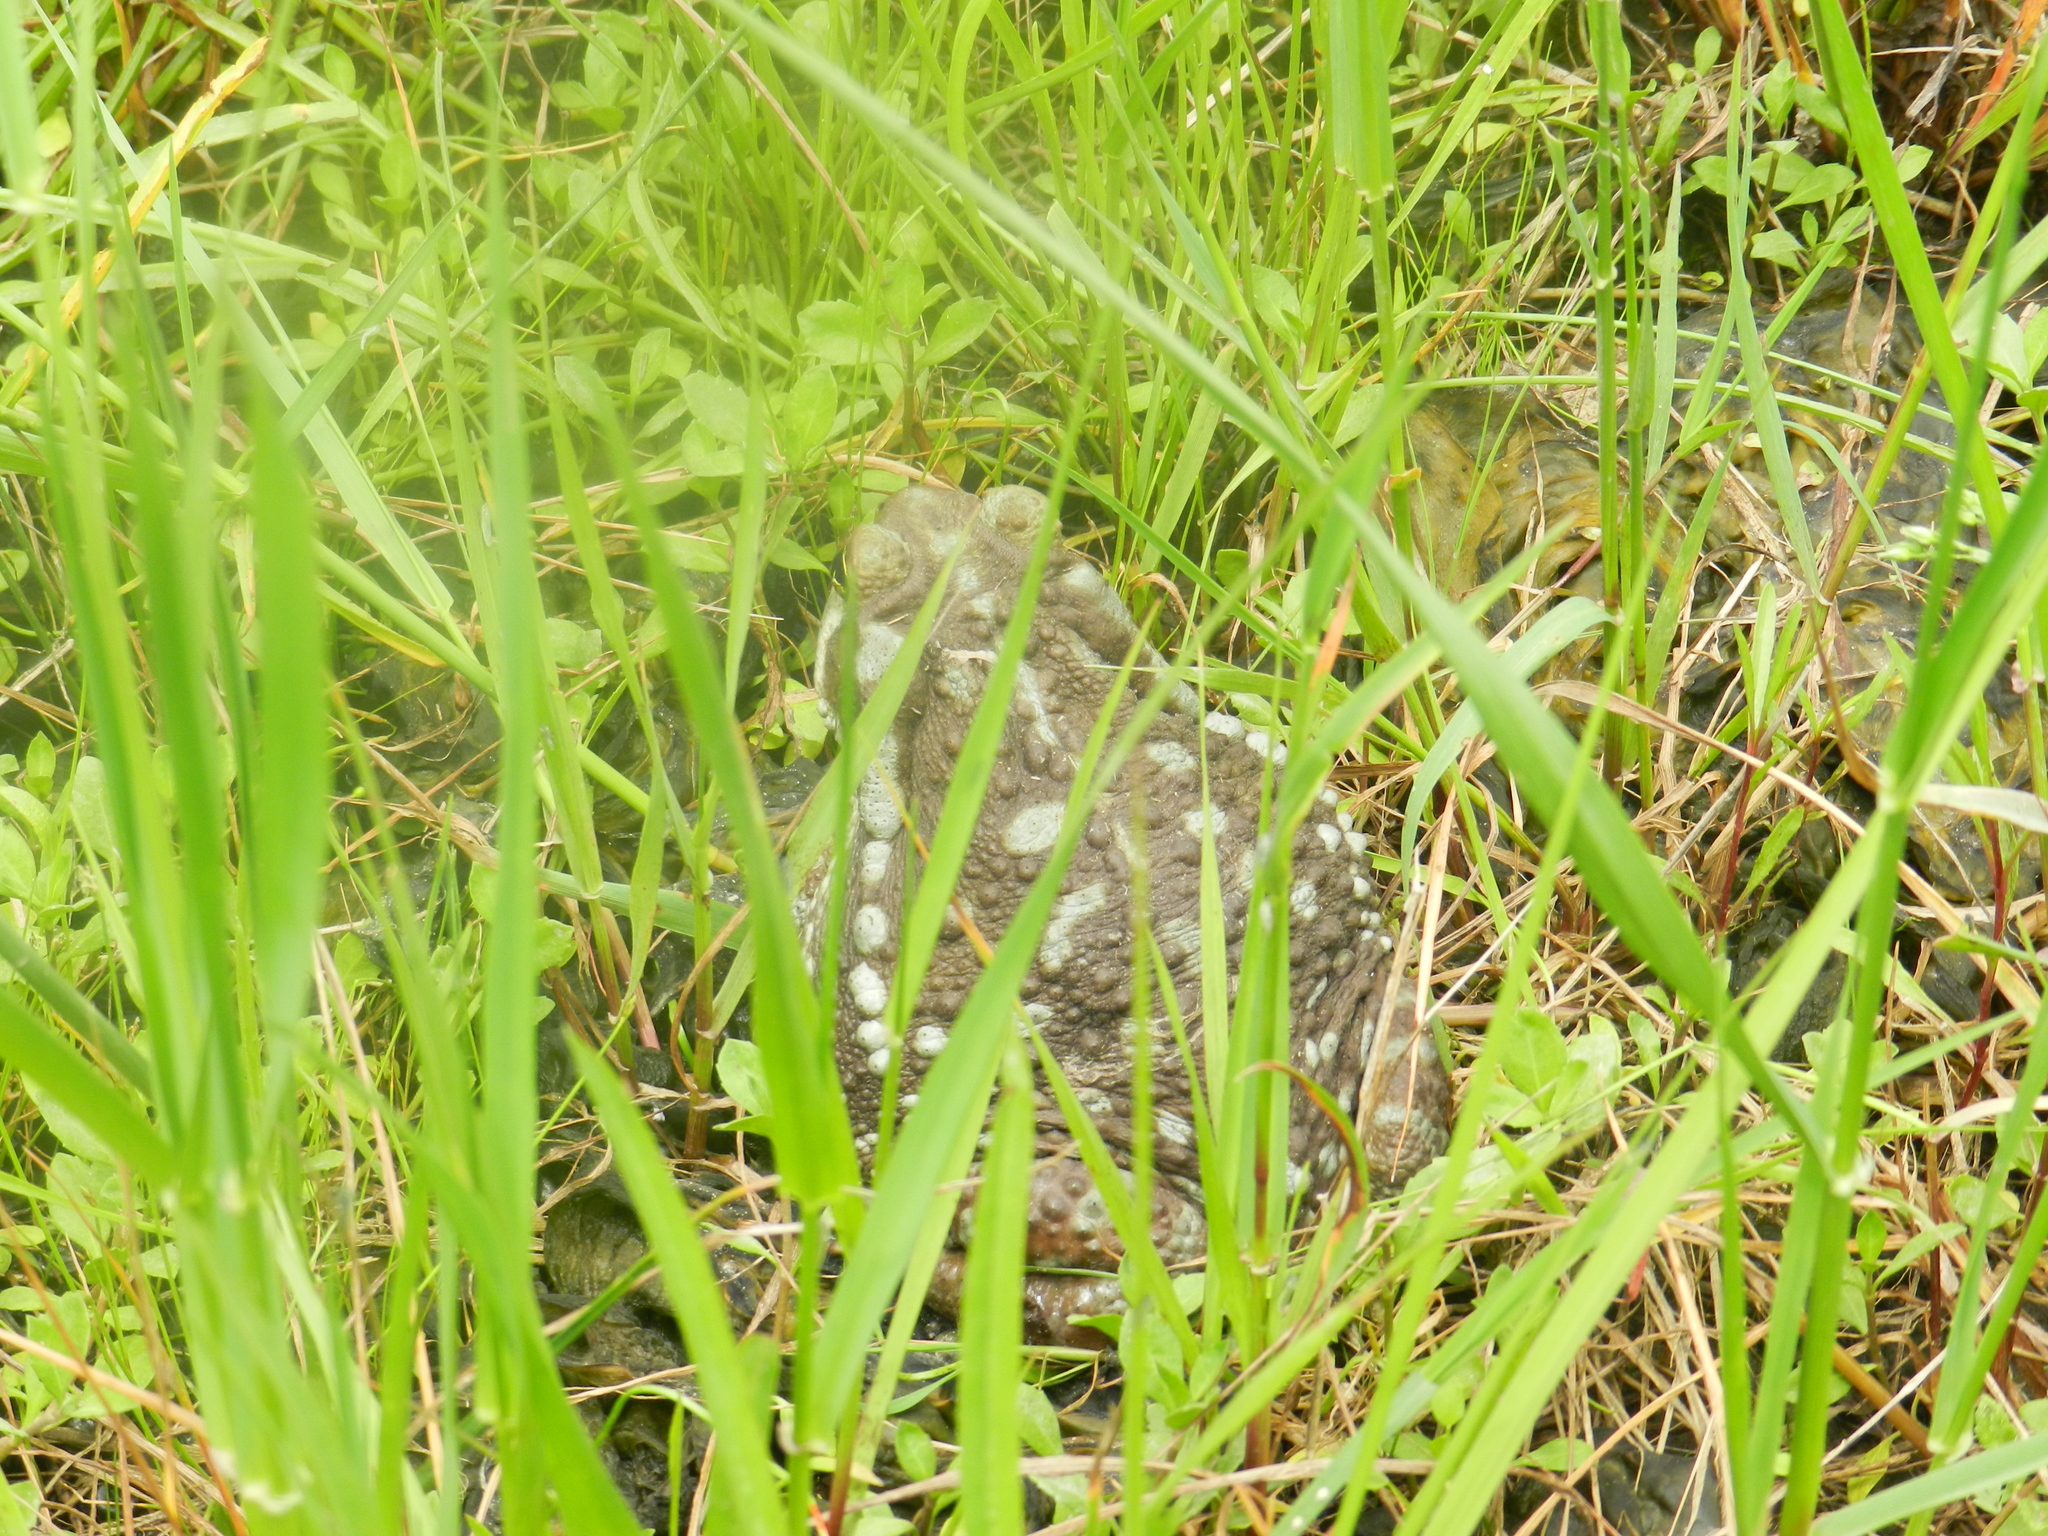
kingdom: Animalia
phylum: Chordata
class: Amphibia
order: Anura
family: Bufonidae
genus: Rhinella
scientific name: Rhinella arenarum
